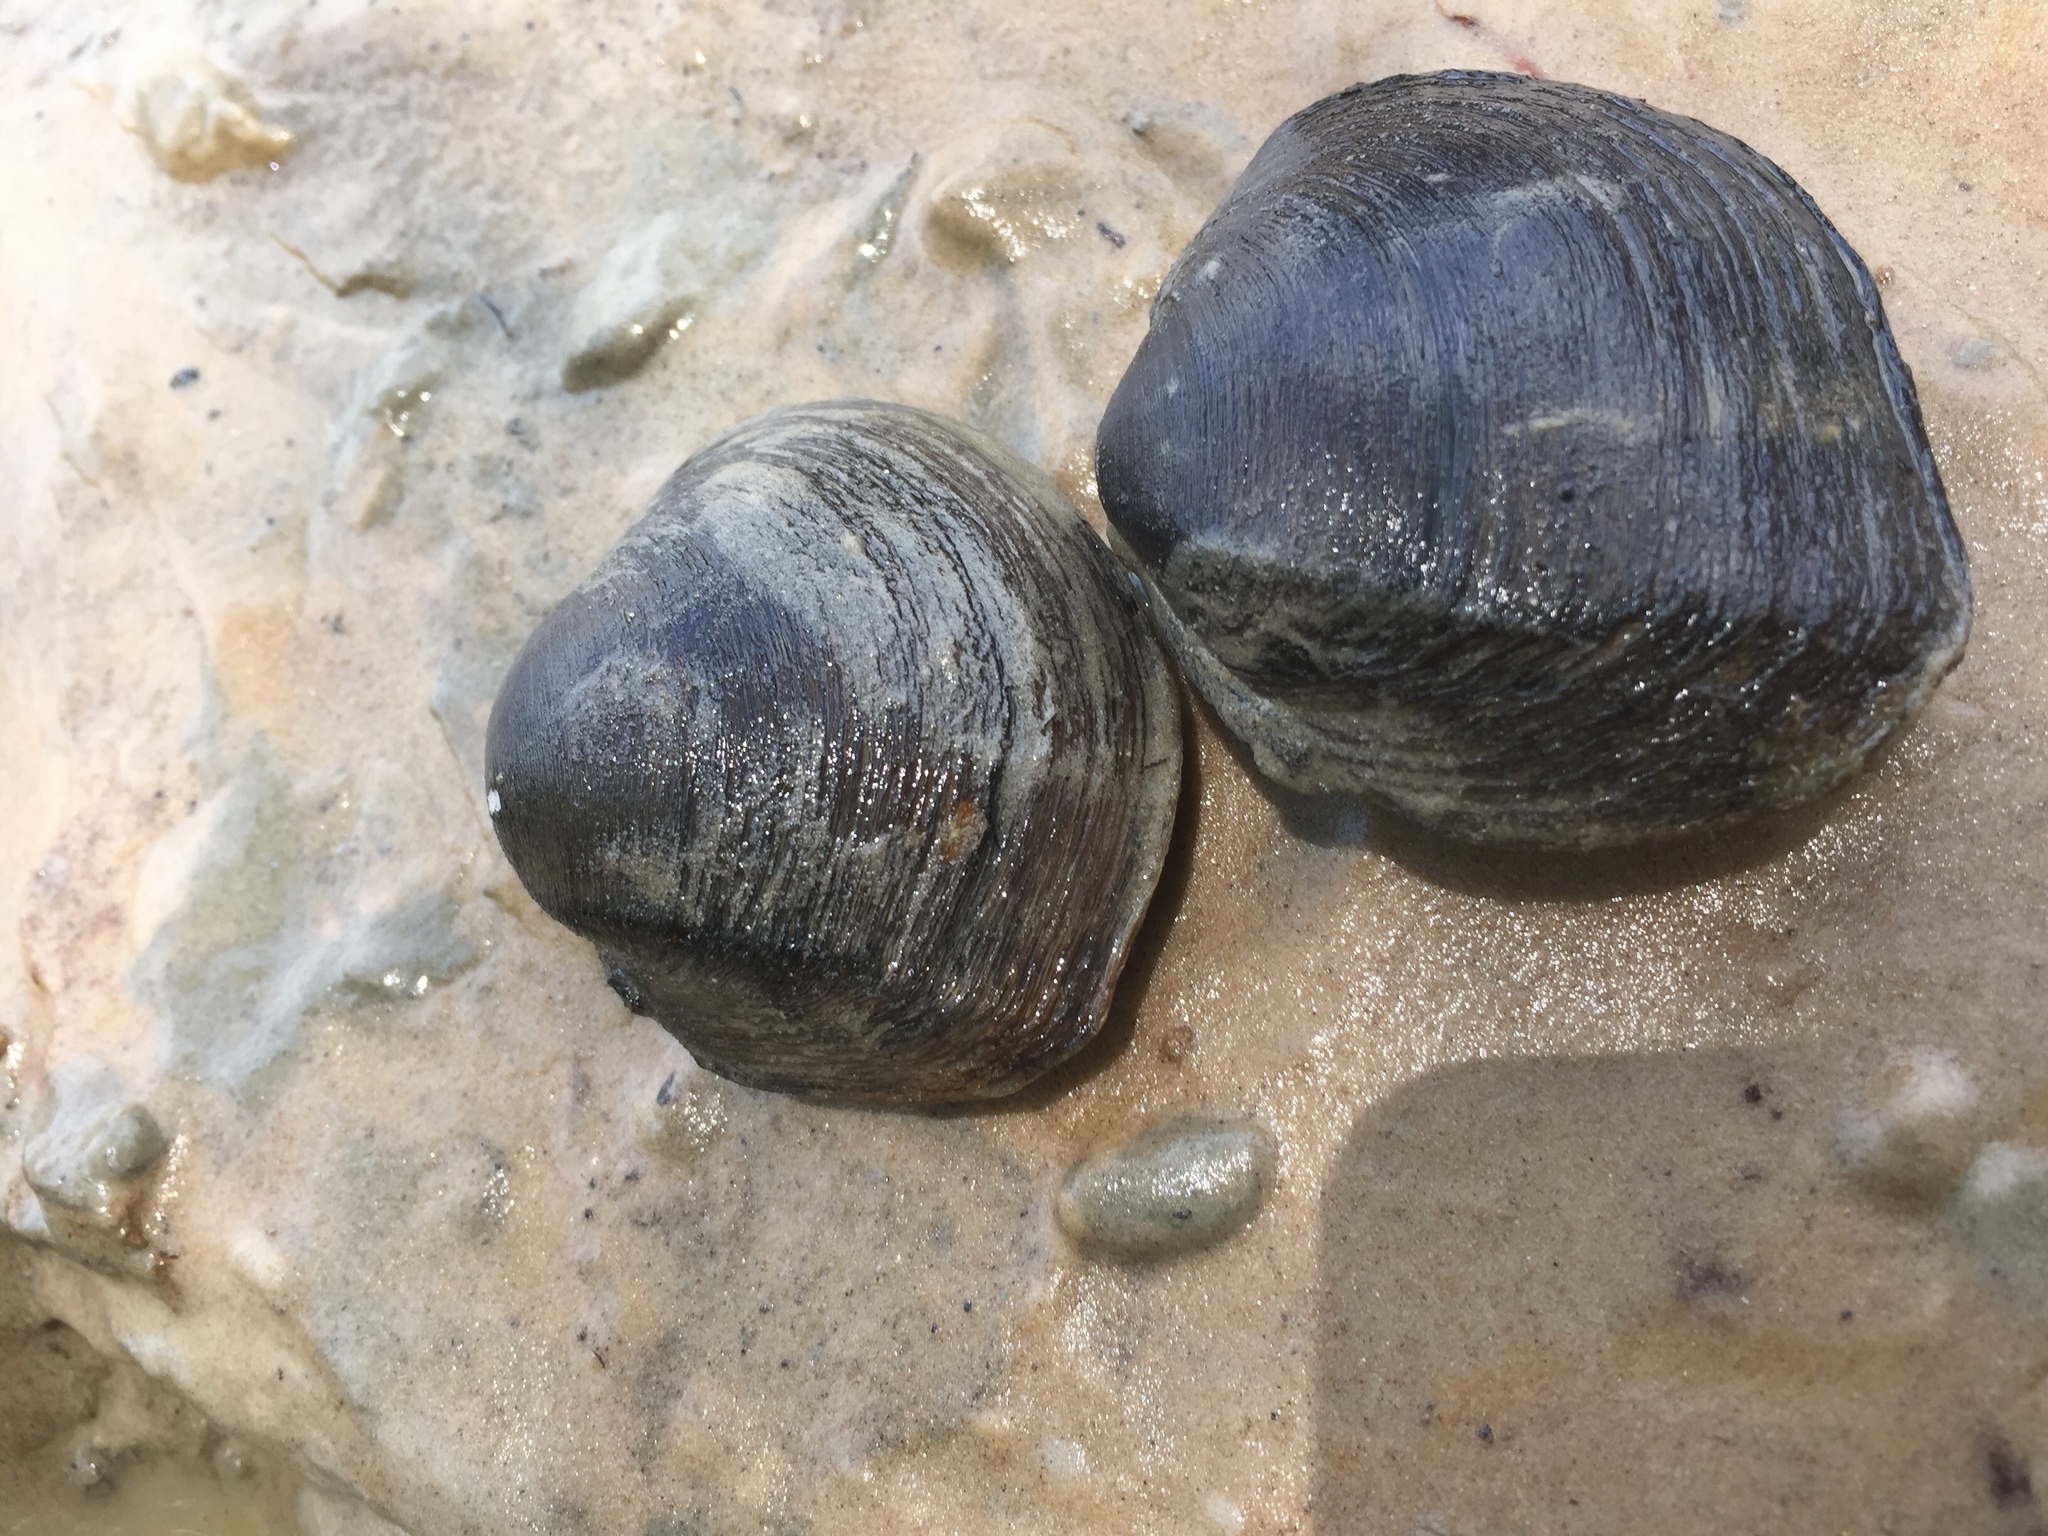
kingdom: Animalia
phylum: Mollusca
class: Bivalvia
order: Unionida
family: Unionidae
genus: Fusconaia
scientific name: Fusconaia cerina
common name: Gulf pigtoe
